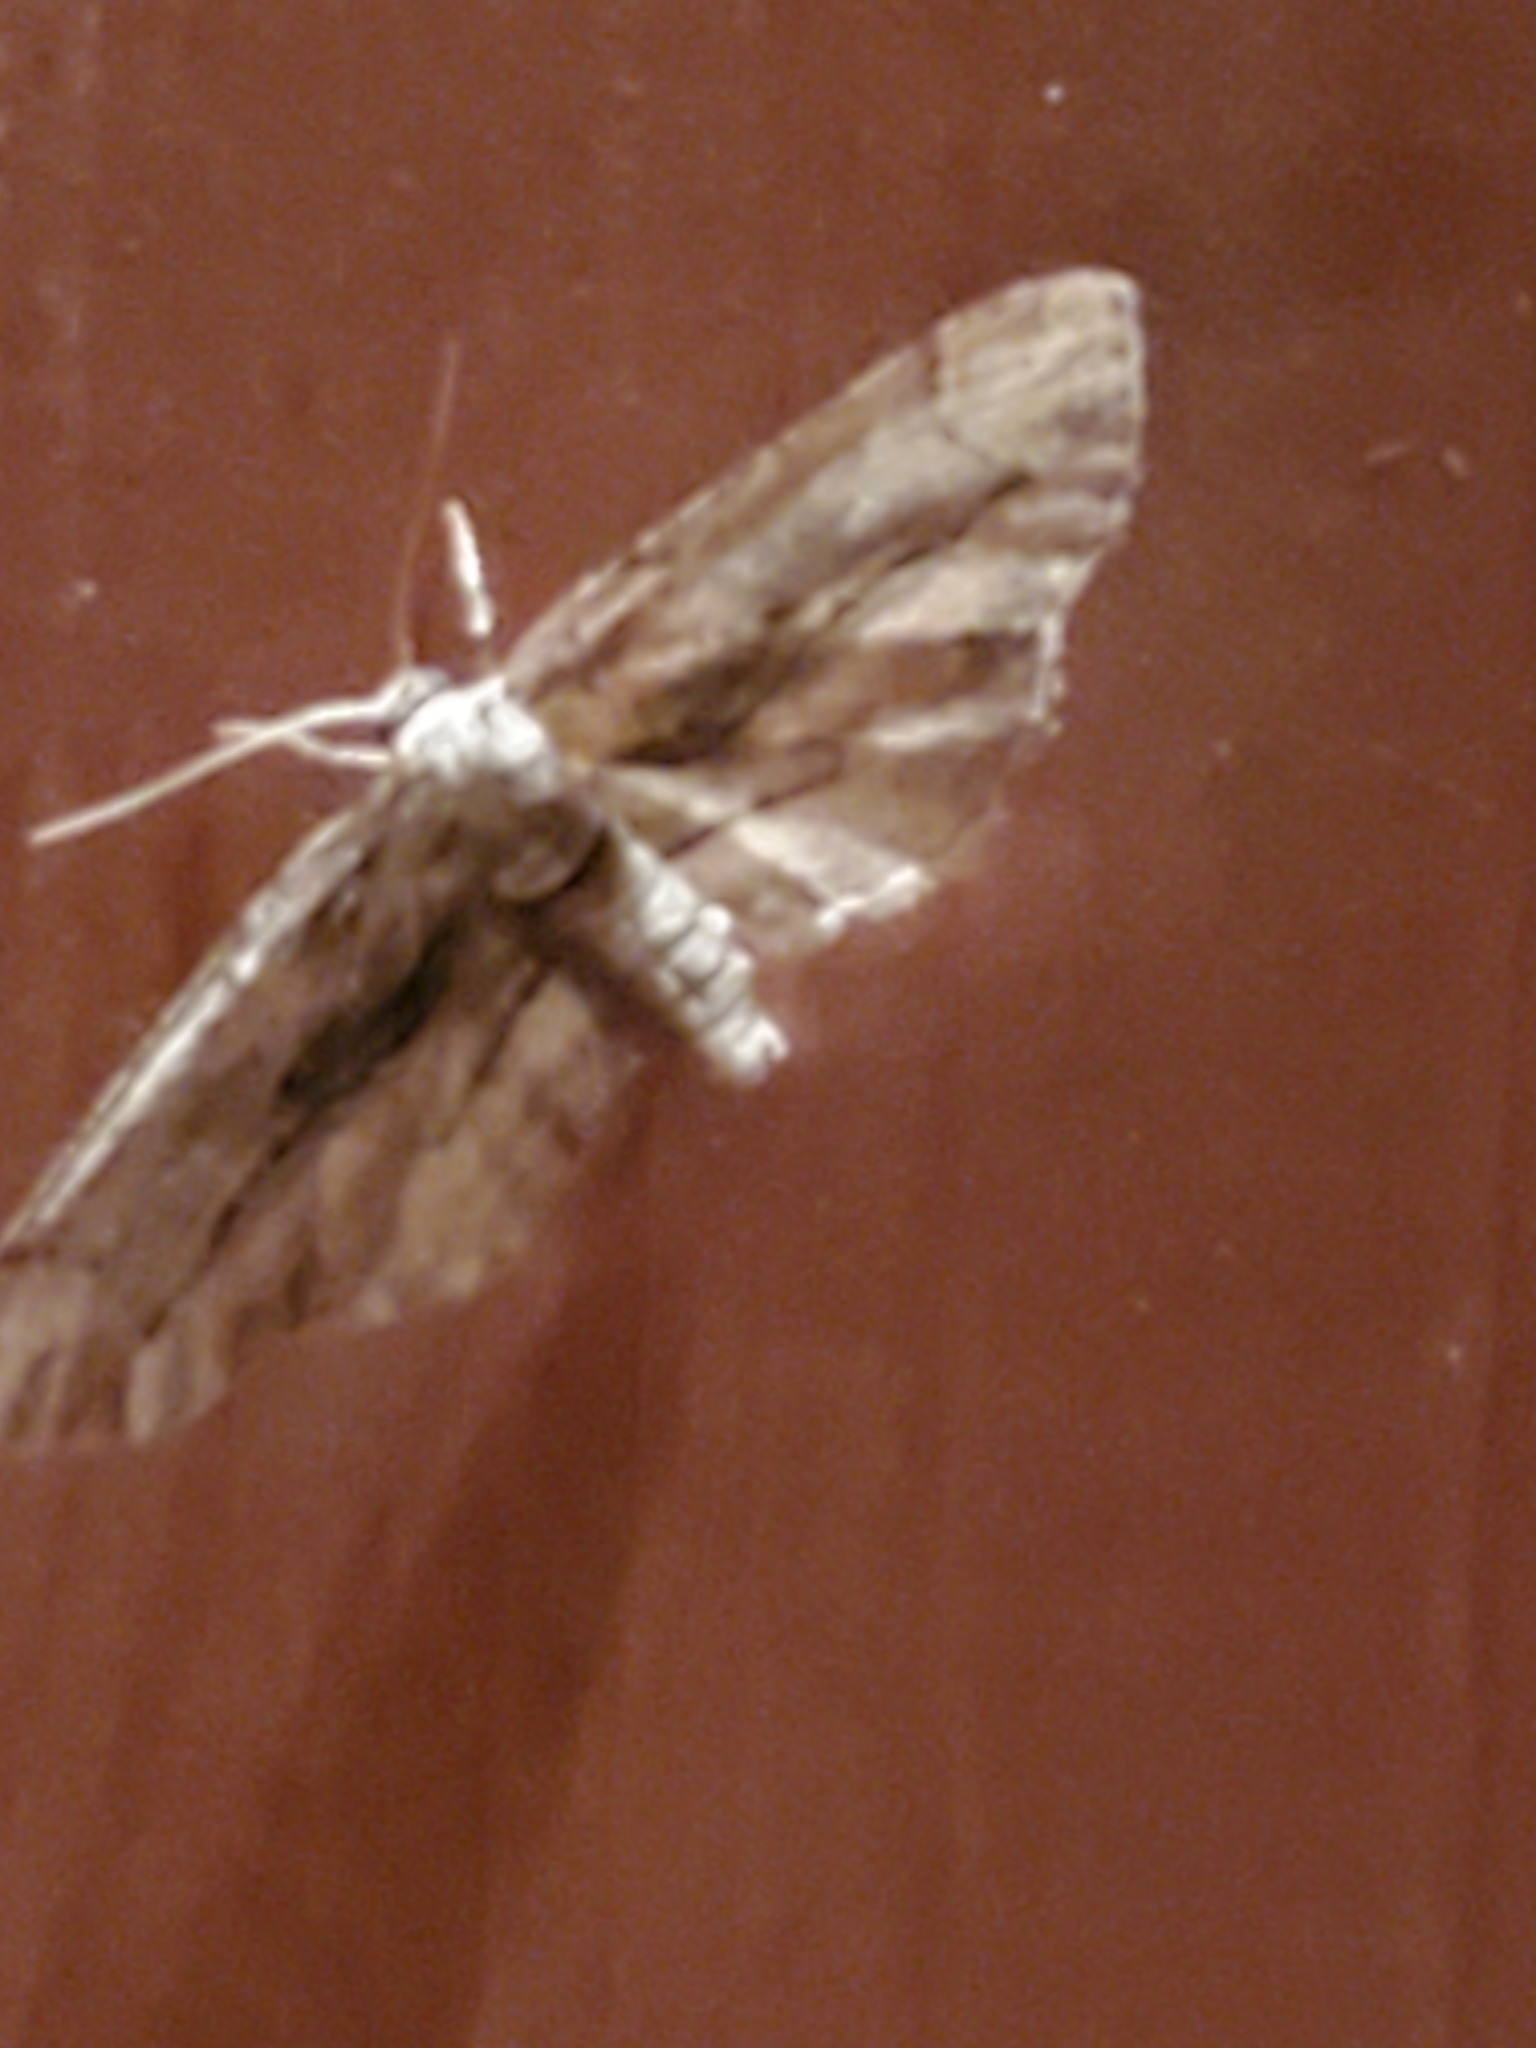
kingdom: Animalia
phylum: Arthropoda
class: Insecta
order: Lepidoptera
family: Geometridae
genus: Holochroa
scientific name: Holochroa dissociarius
